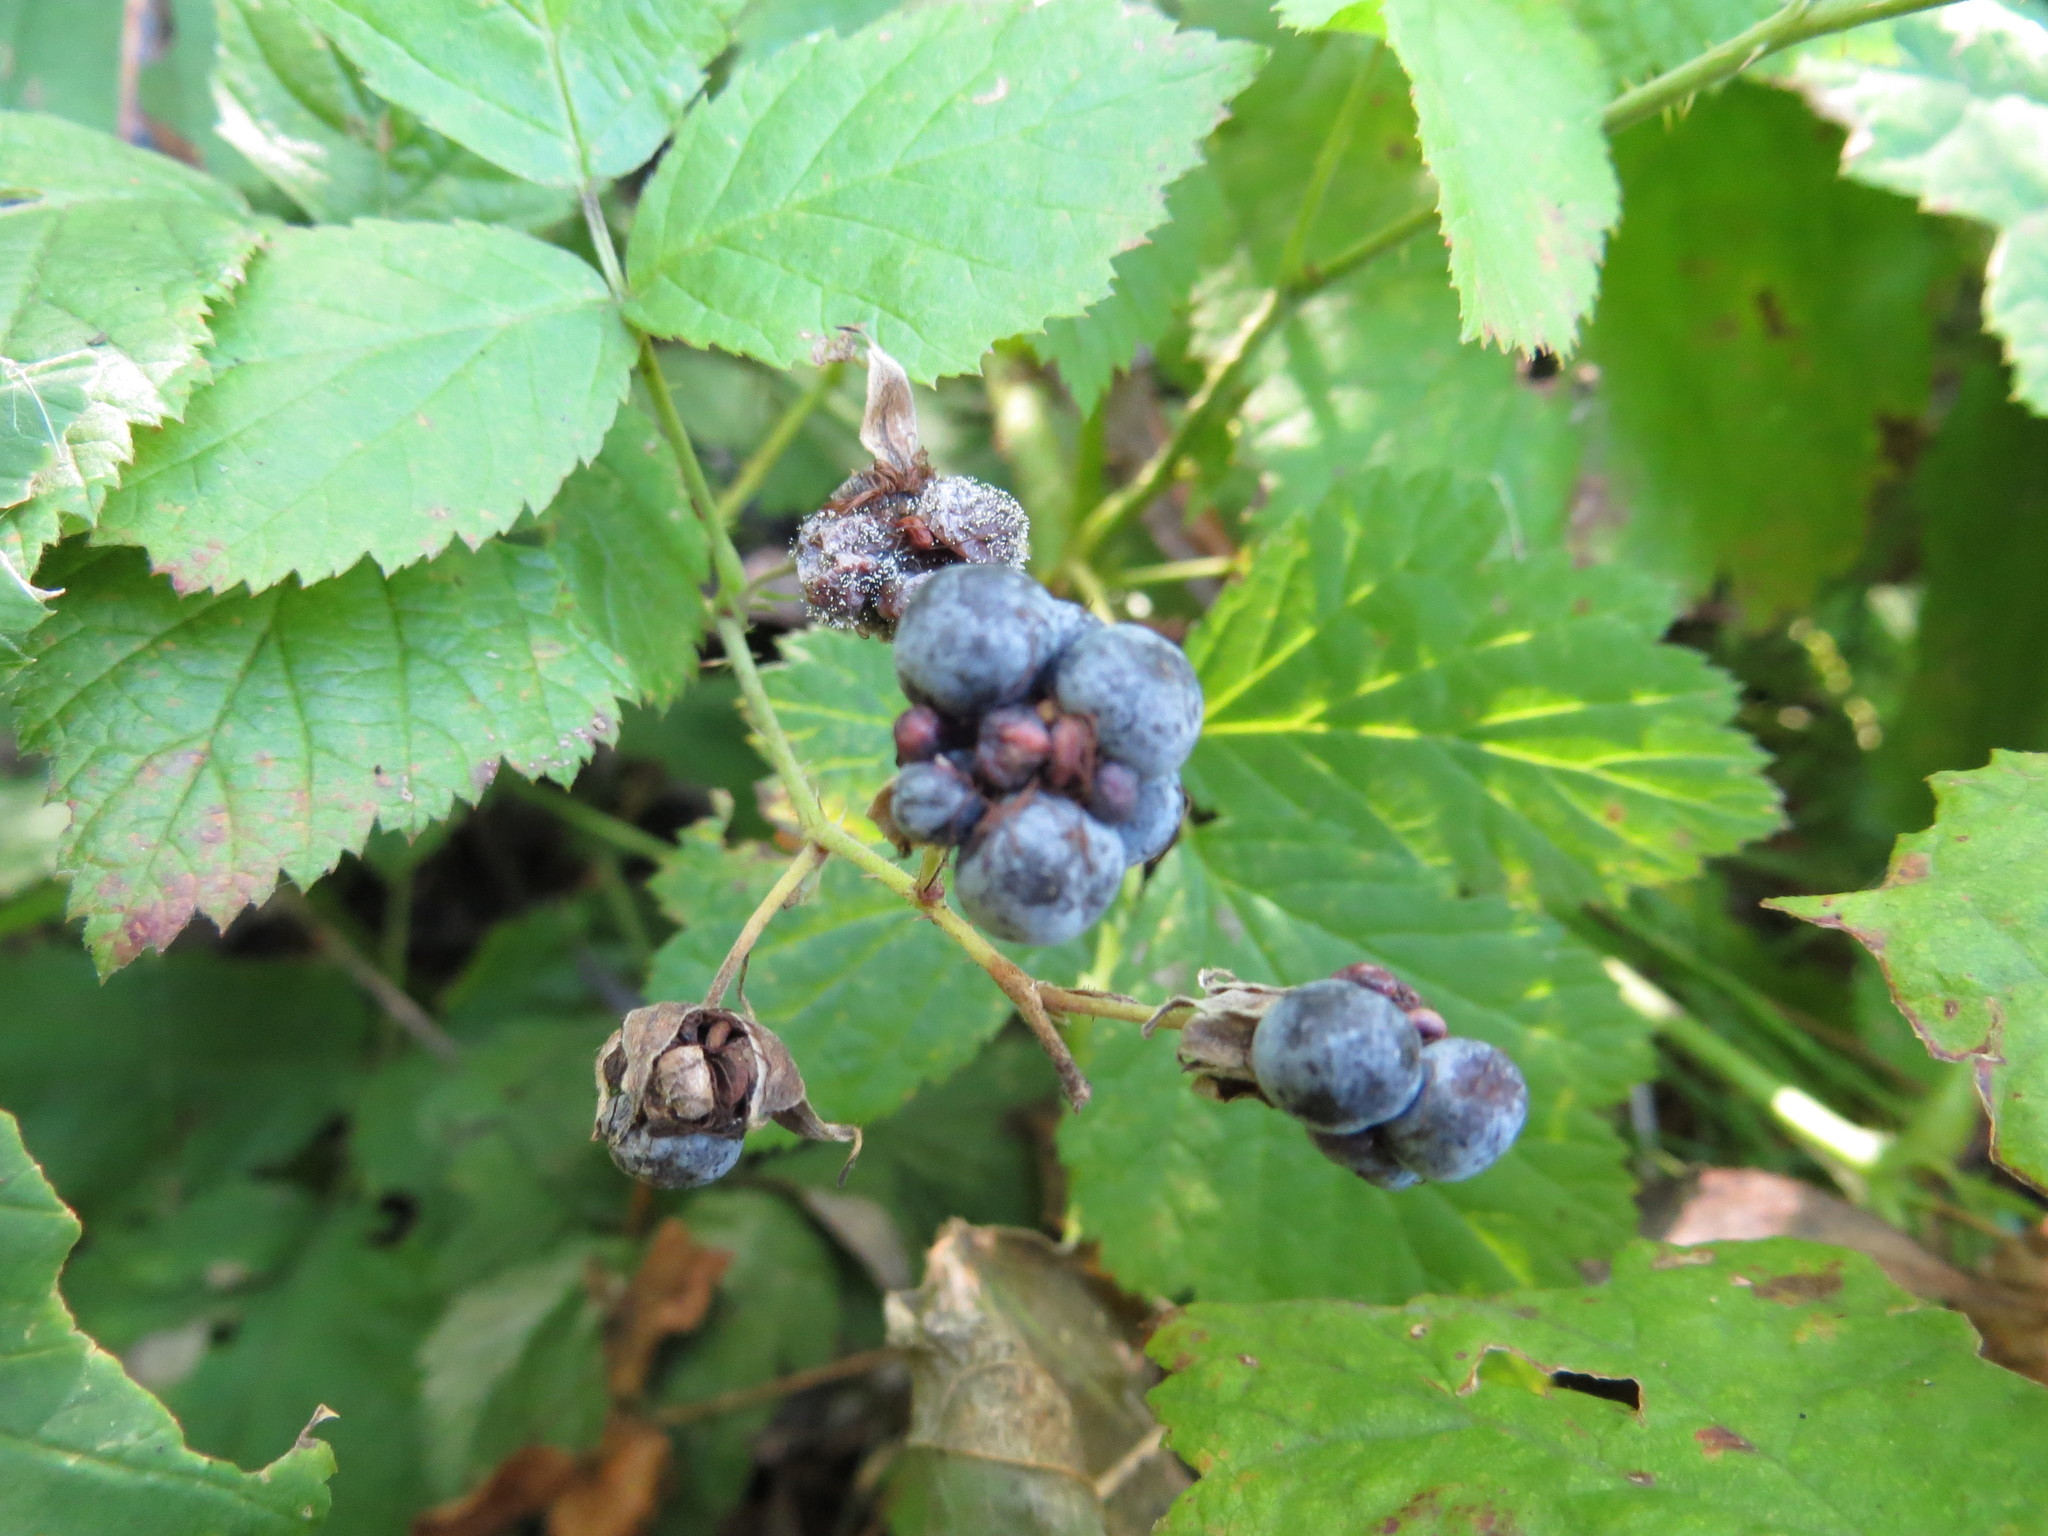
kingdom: Plantae
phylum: Tracheophyta
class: Magnoliopsida
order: Rosales
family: Rosaceae
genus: Rubus
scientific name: Rubus caesius
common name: Dewberry
